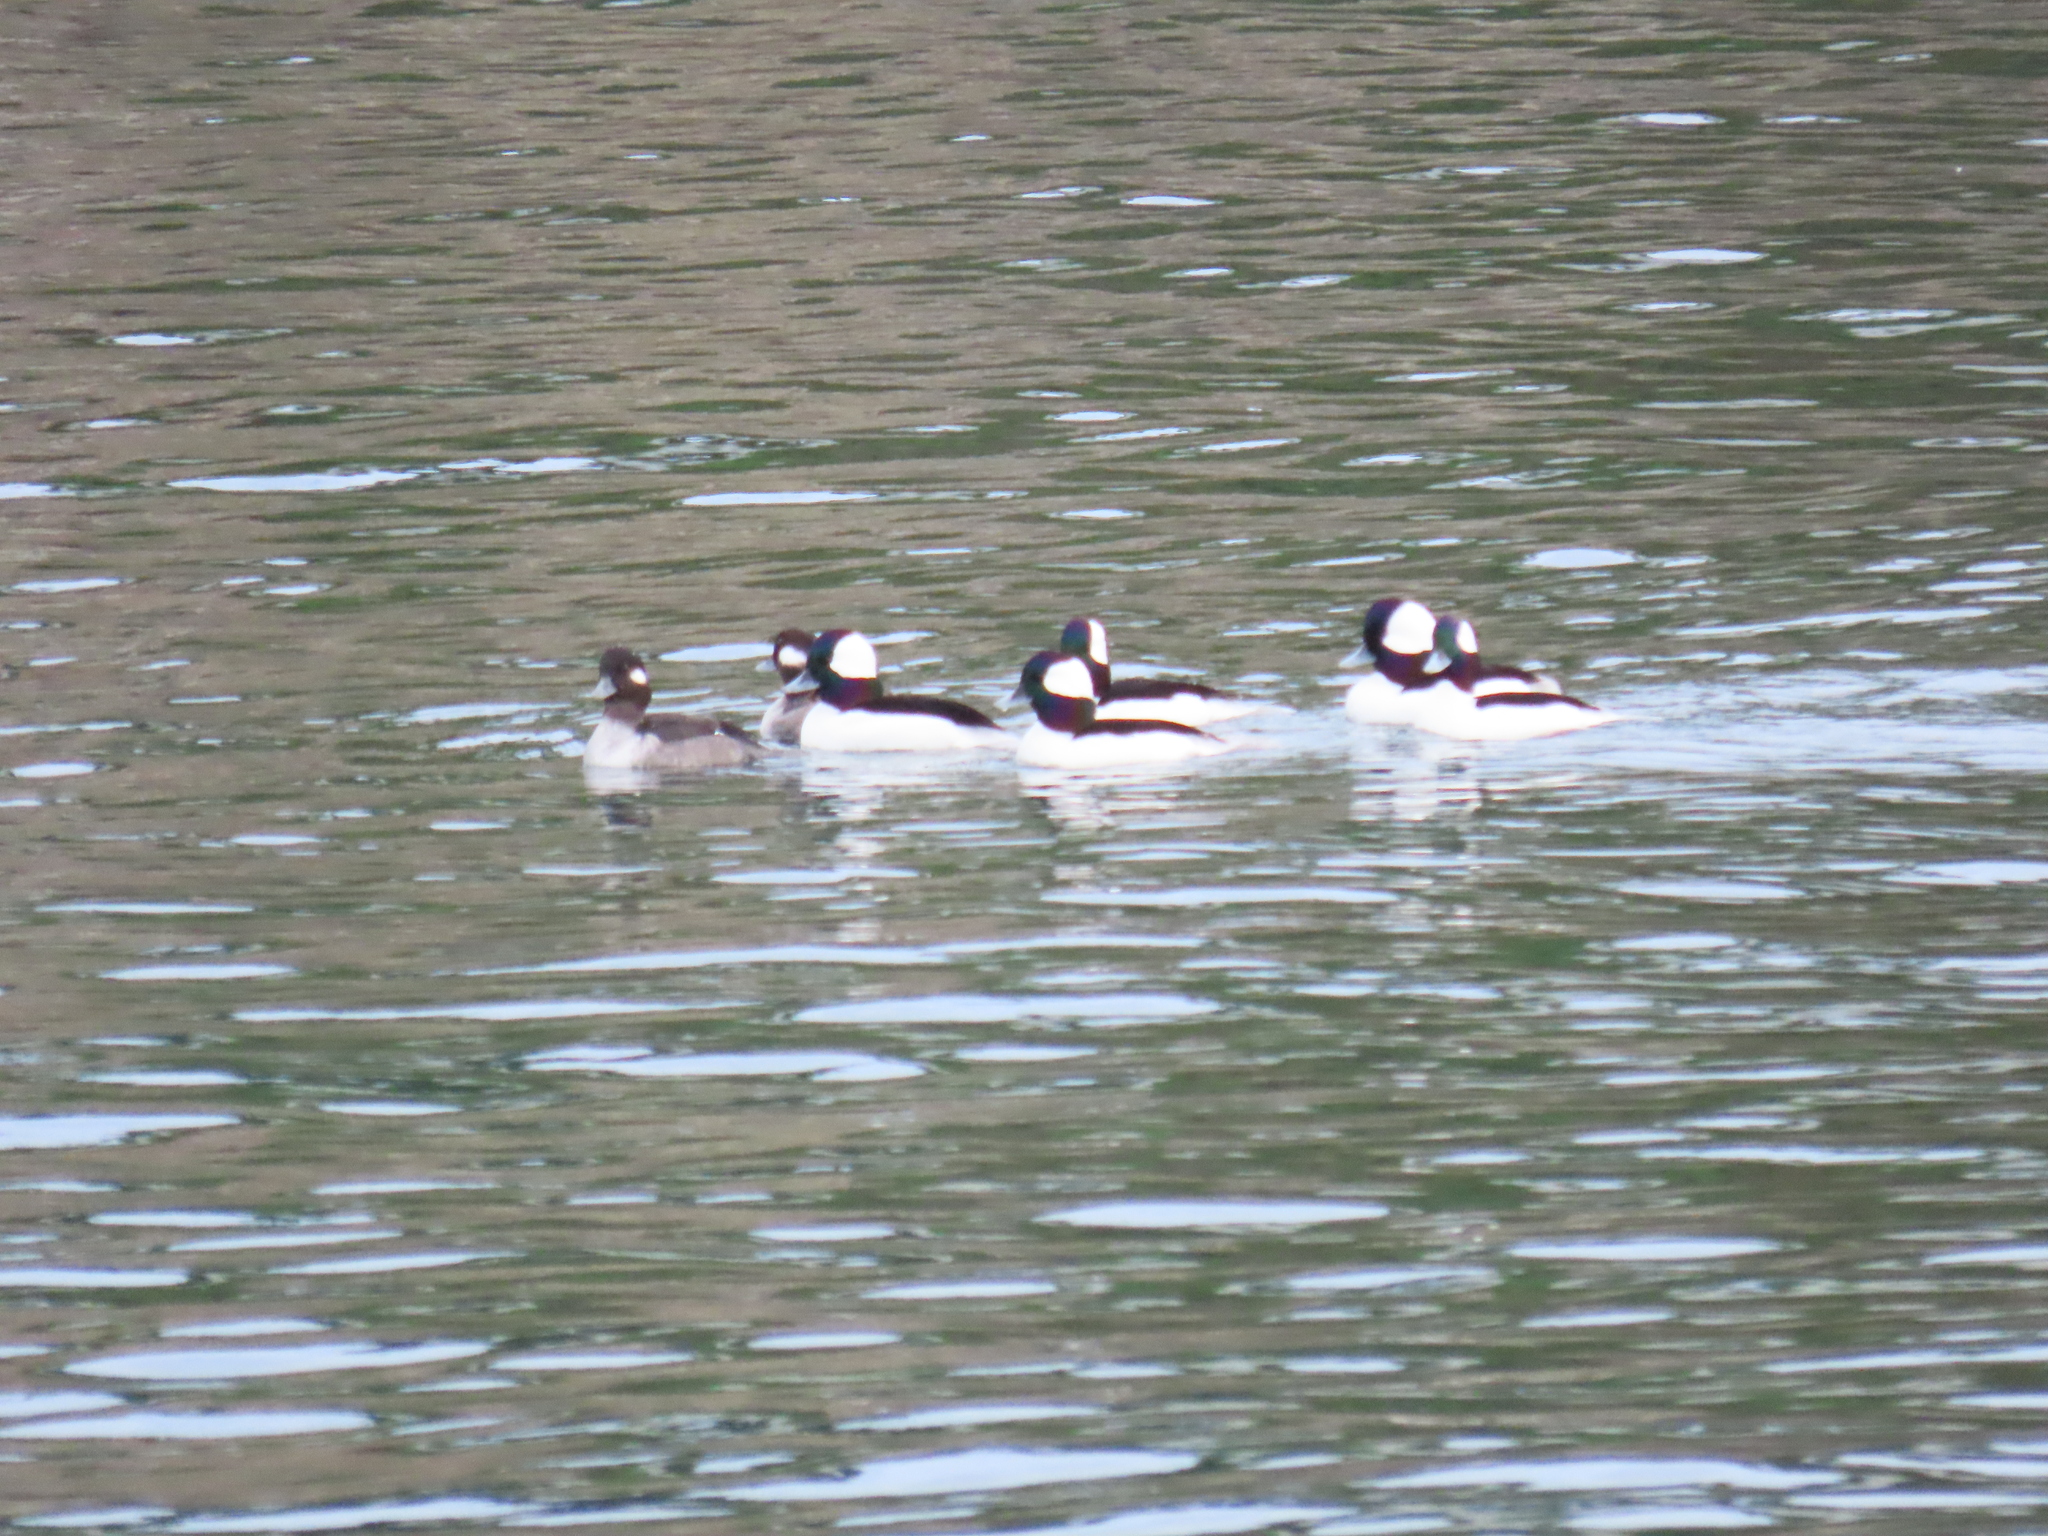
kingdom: Animalia
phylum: Chordata
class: Aves
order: Anseriformes
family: Anatidae
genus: Bucephala
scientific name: Bucephala albeola
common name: Bufflehead
